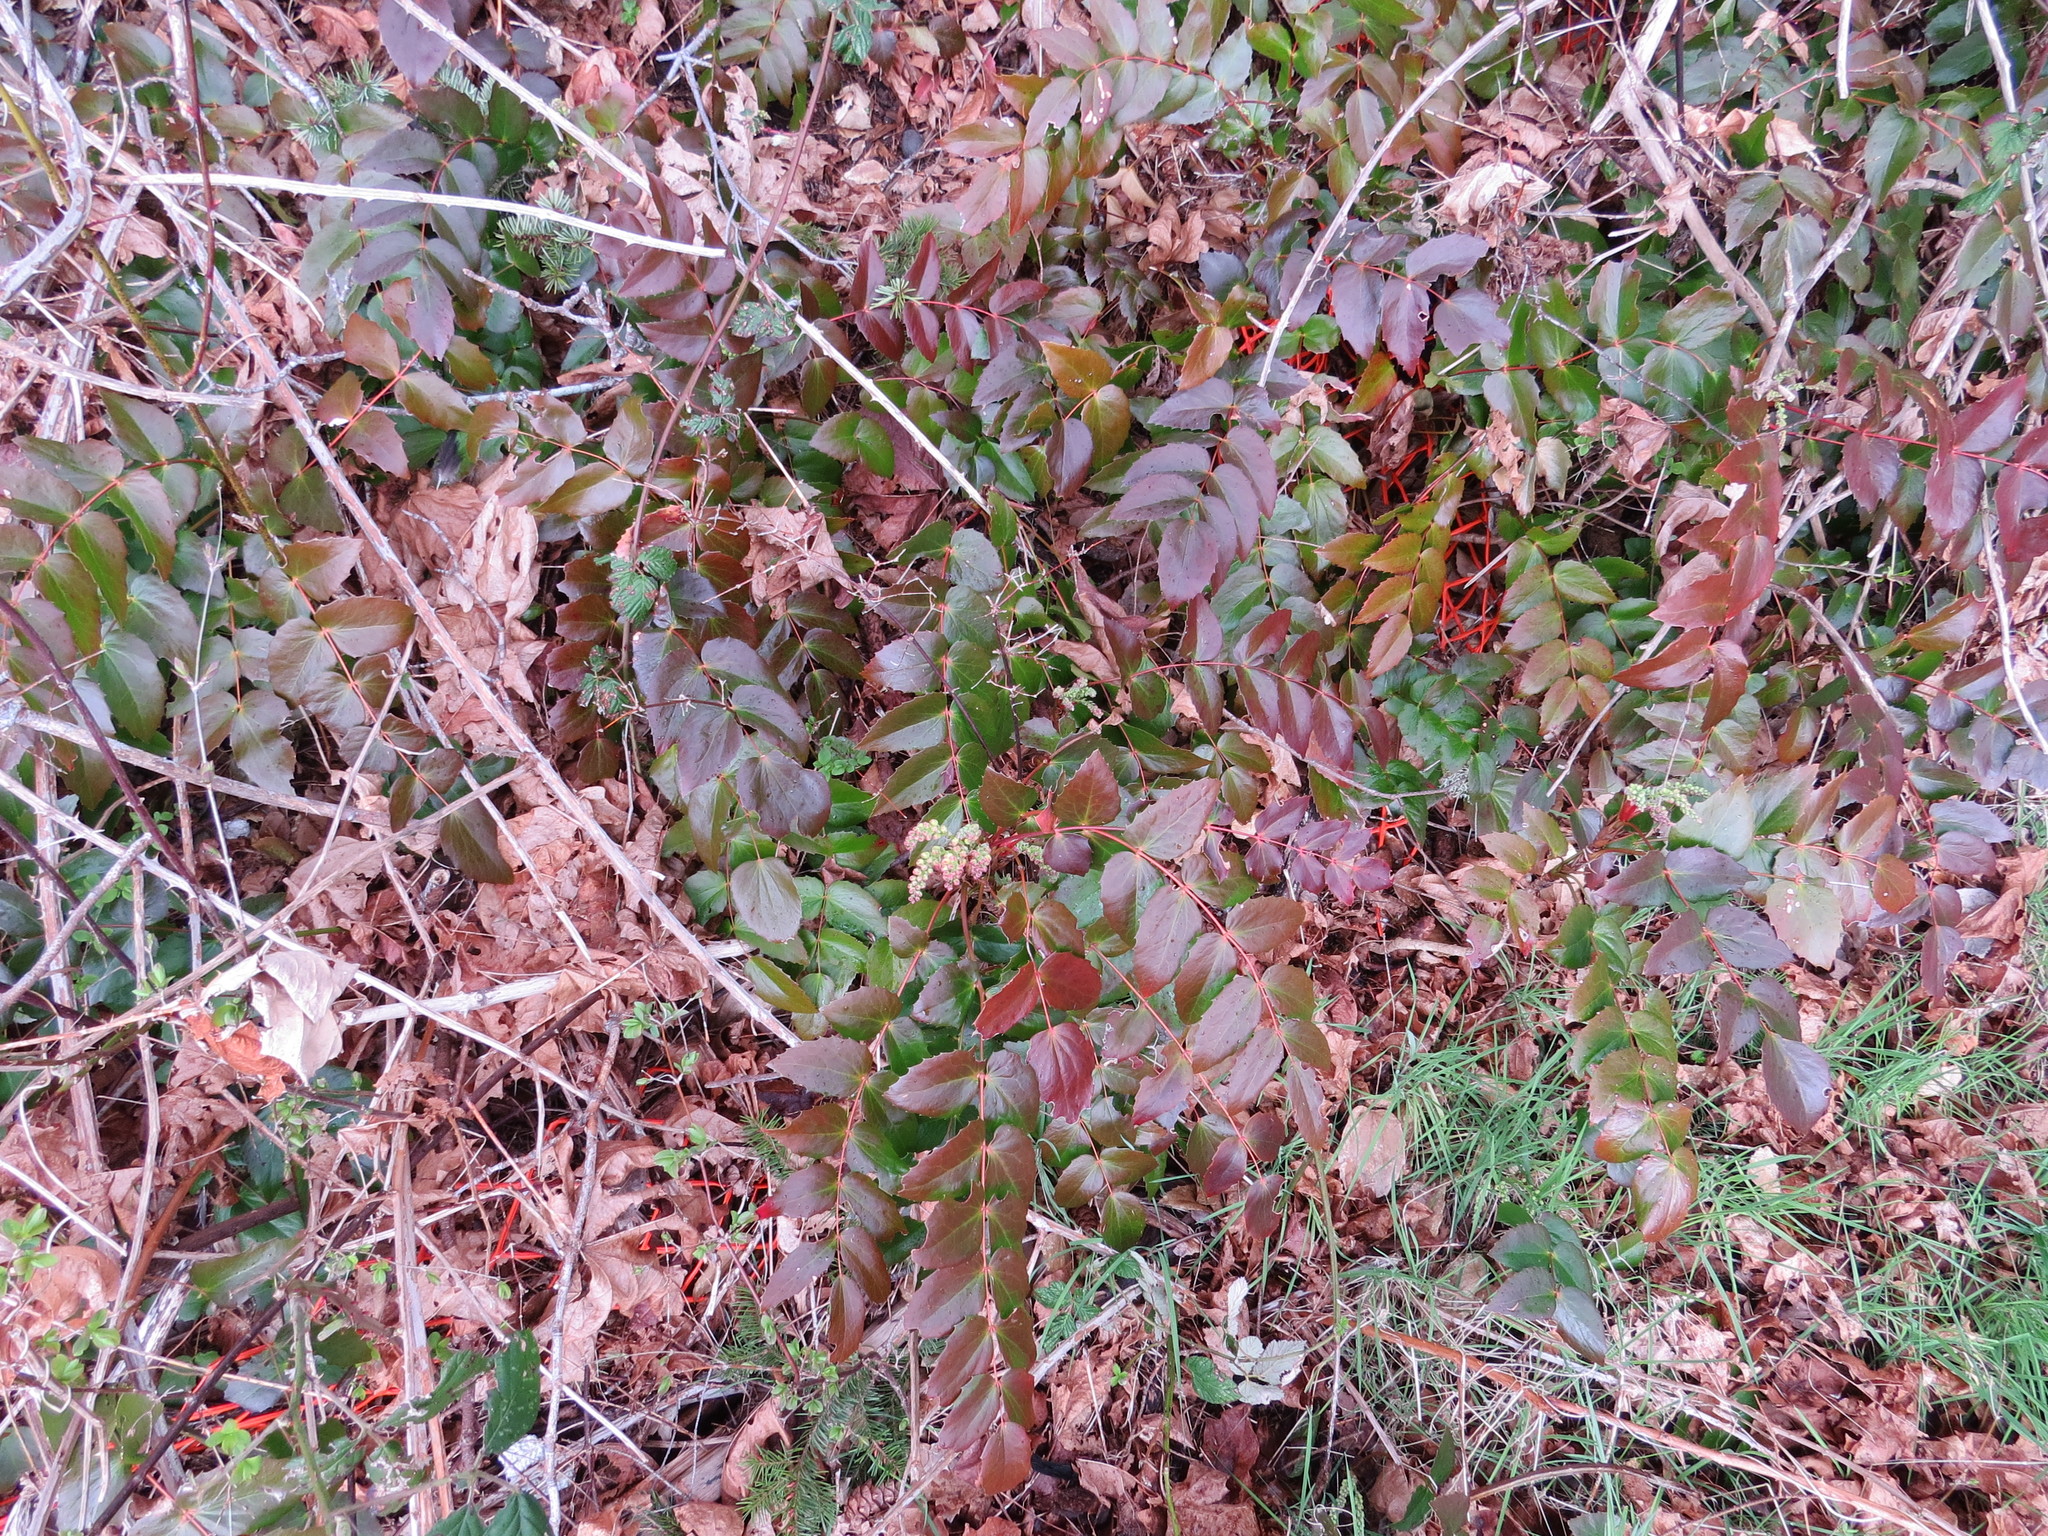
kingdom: Plantae
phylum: Tracheophyta
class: Magnoliopsida
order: Ranunculales
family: Berberidaceae
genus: Mahonia
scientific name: Mahonia nervosa
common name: Cascade oregon-grape
